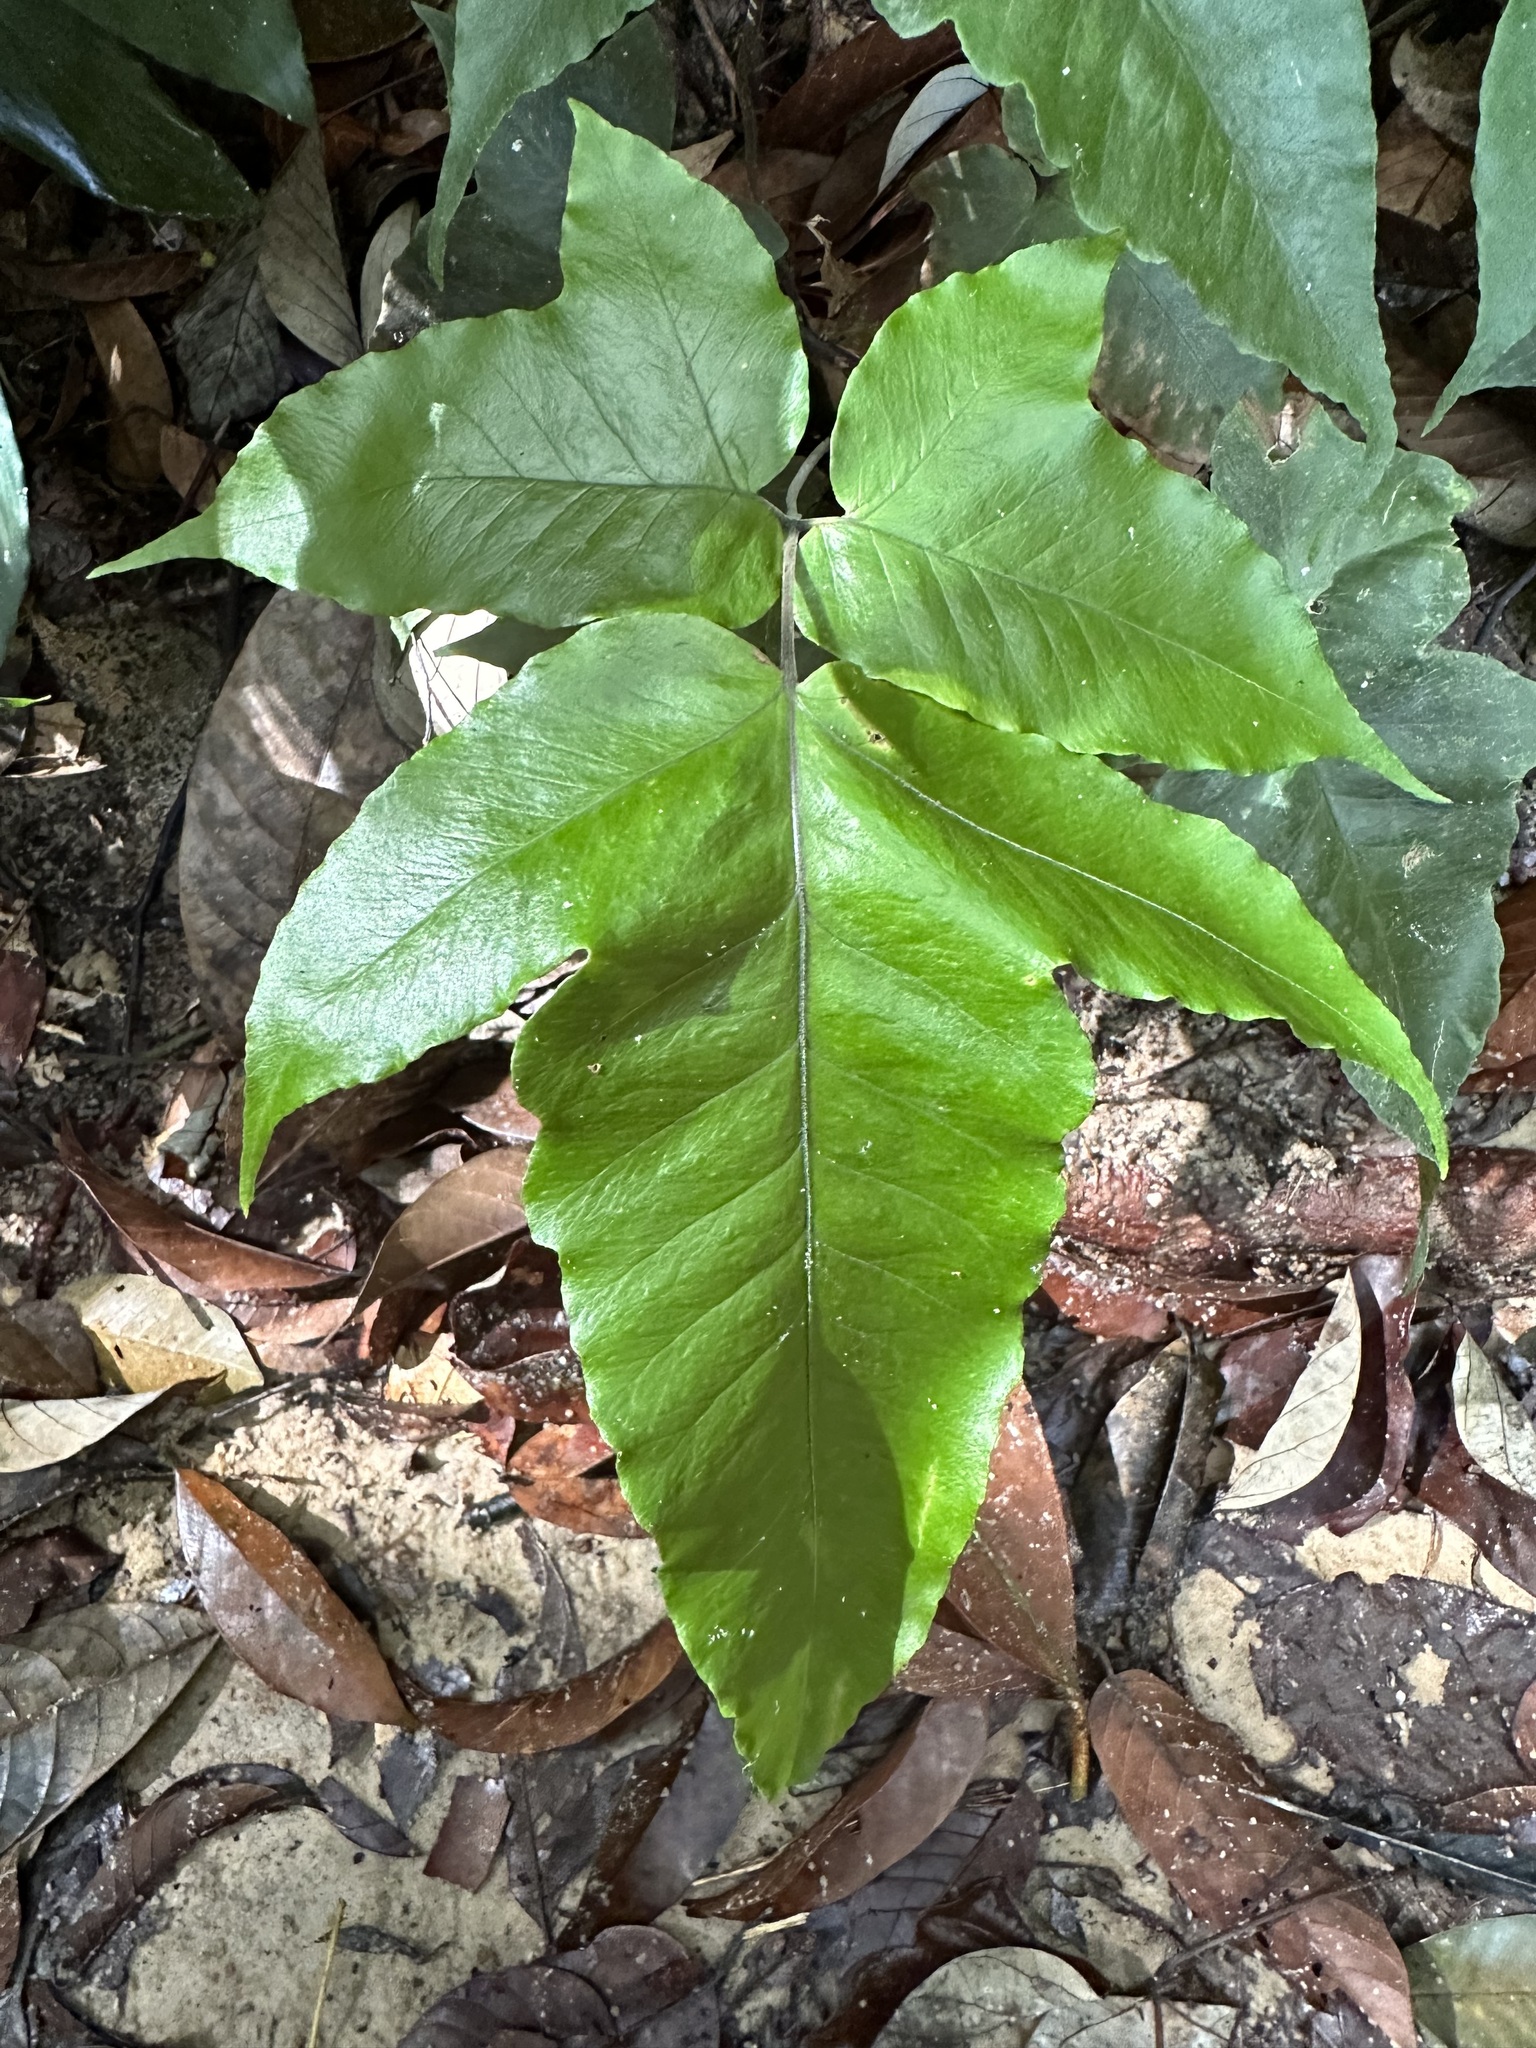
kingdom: Plantae
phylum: Tracheophyta
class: Polypodiopsida
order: Polypodiales
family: Tectariaceae
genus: Tectaria
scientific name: Tectaria barberi
